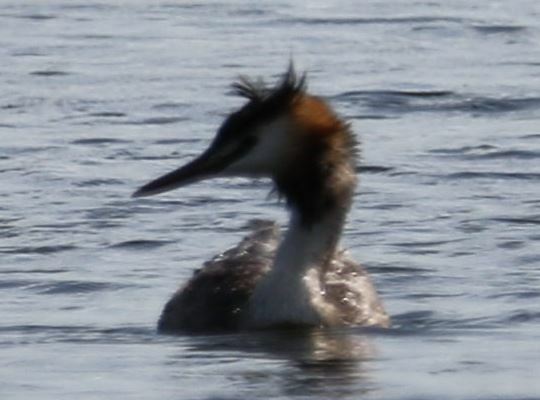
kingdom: Animalia
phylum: Chordata
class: Aves
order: Podicipediformes
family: Podicipedidae
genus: Podiceps
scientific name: Podiceps cristatus
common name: Great crested grebe
